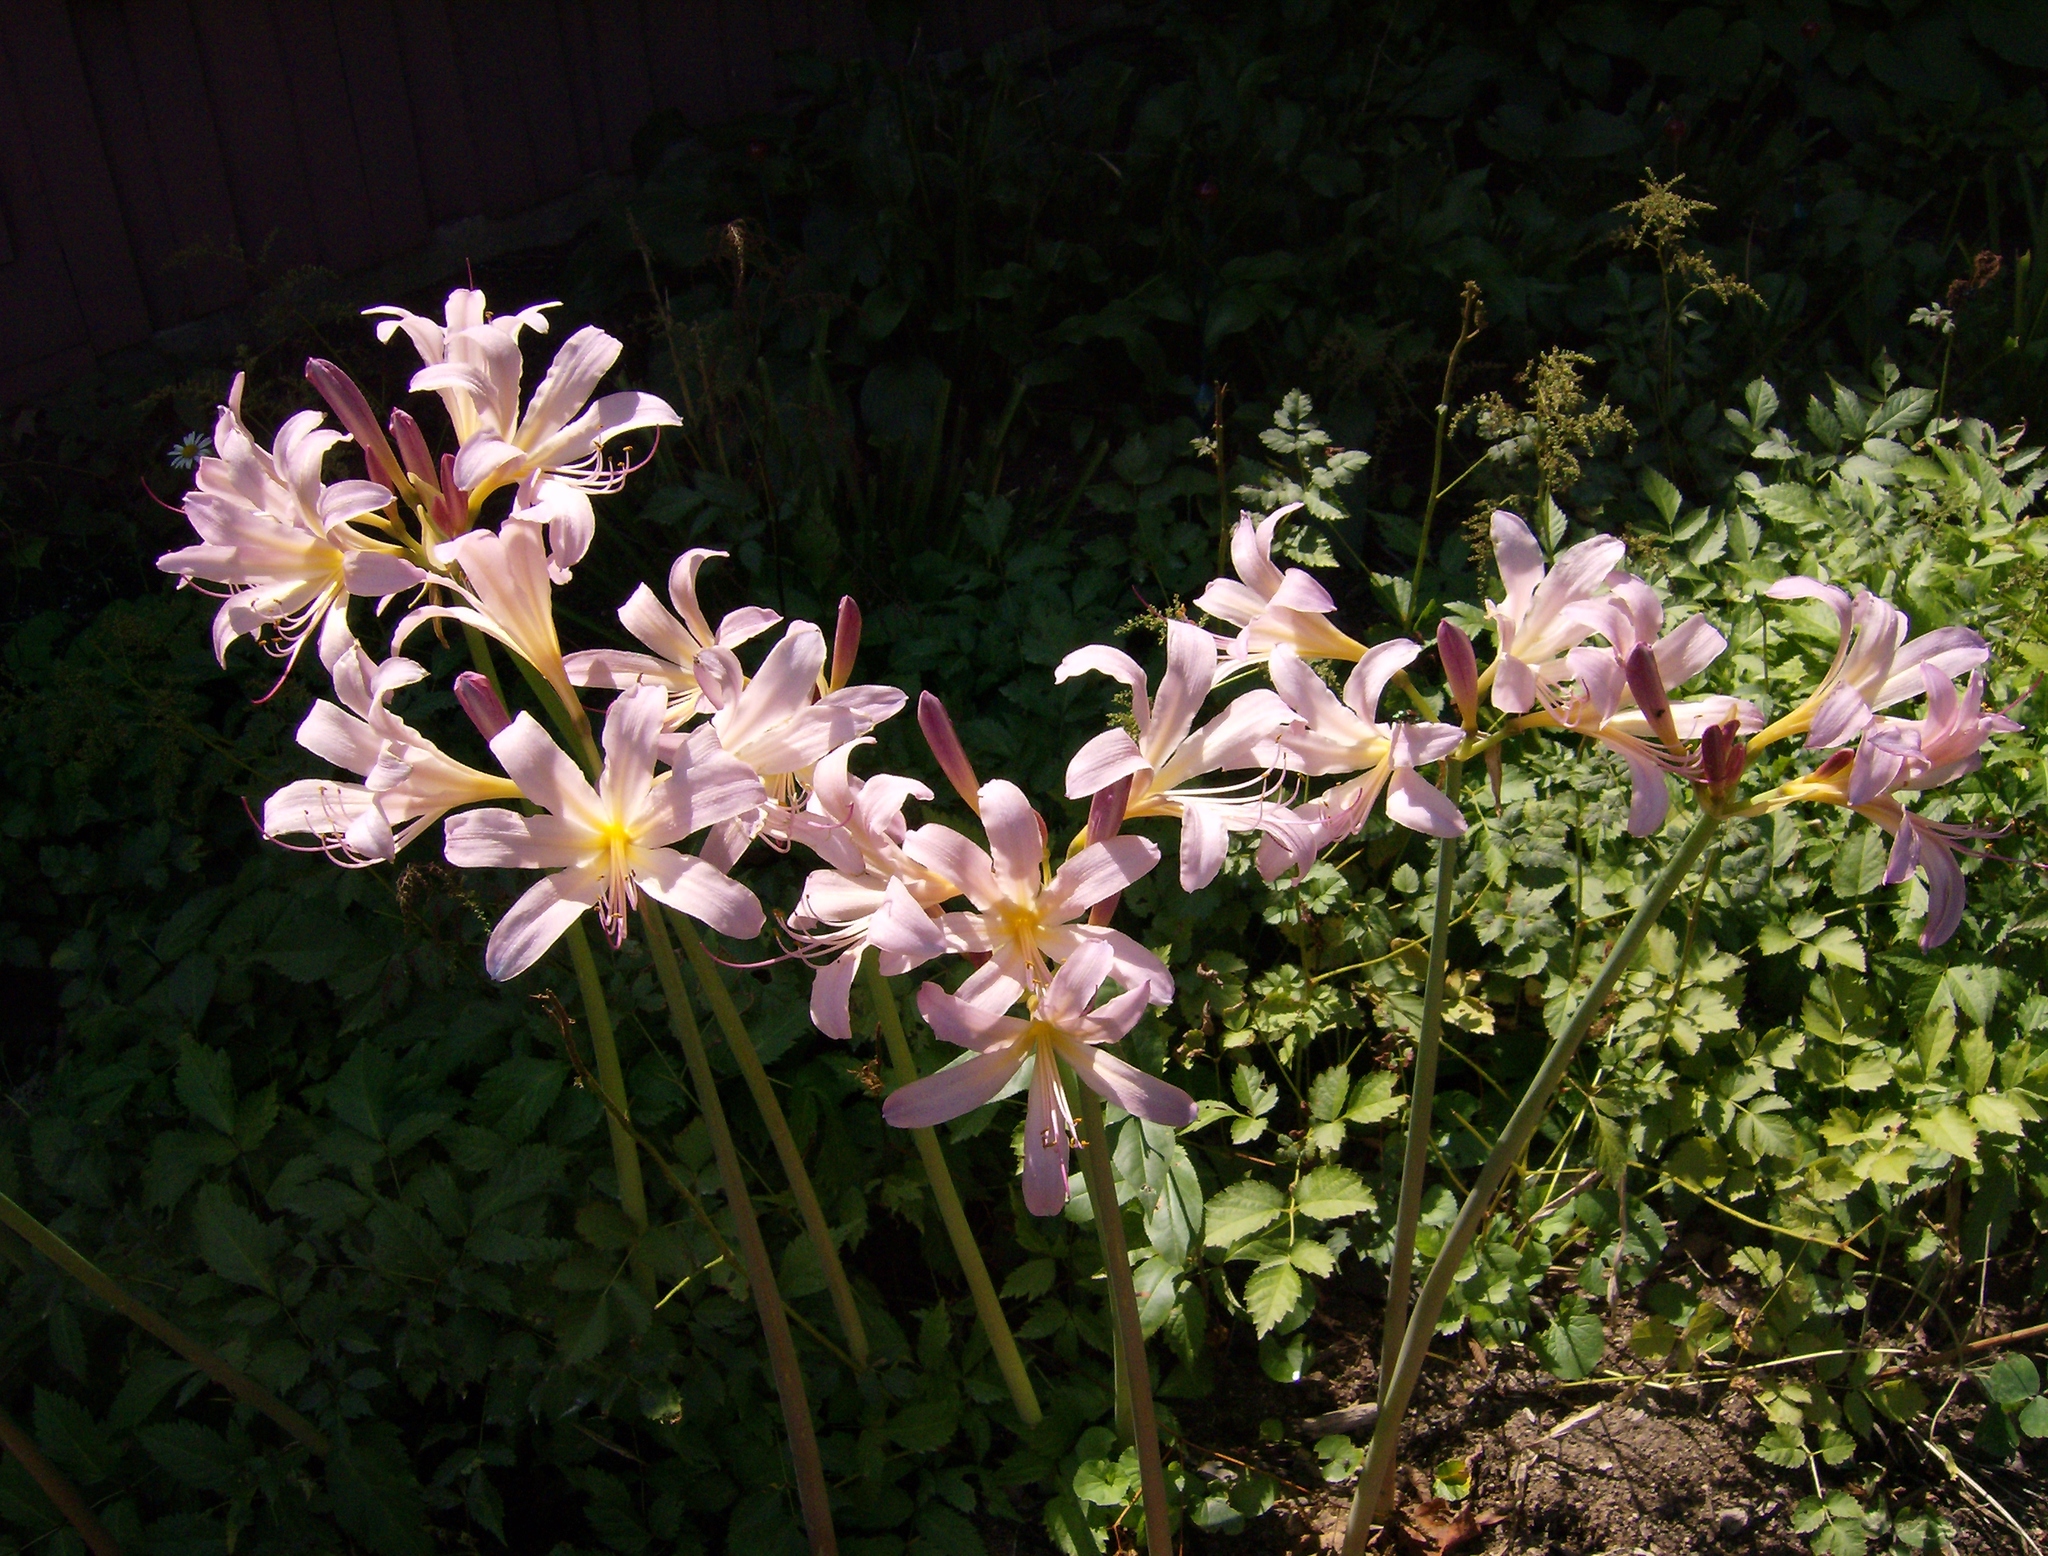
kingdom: Plantae
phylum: Tracheophyta
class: Liliopsida
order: Asparagales
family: Amaryllidaceae
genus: Lycoris
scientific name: Lycoris squamigera
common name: Magic-lily
